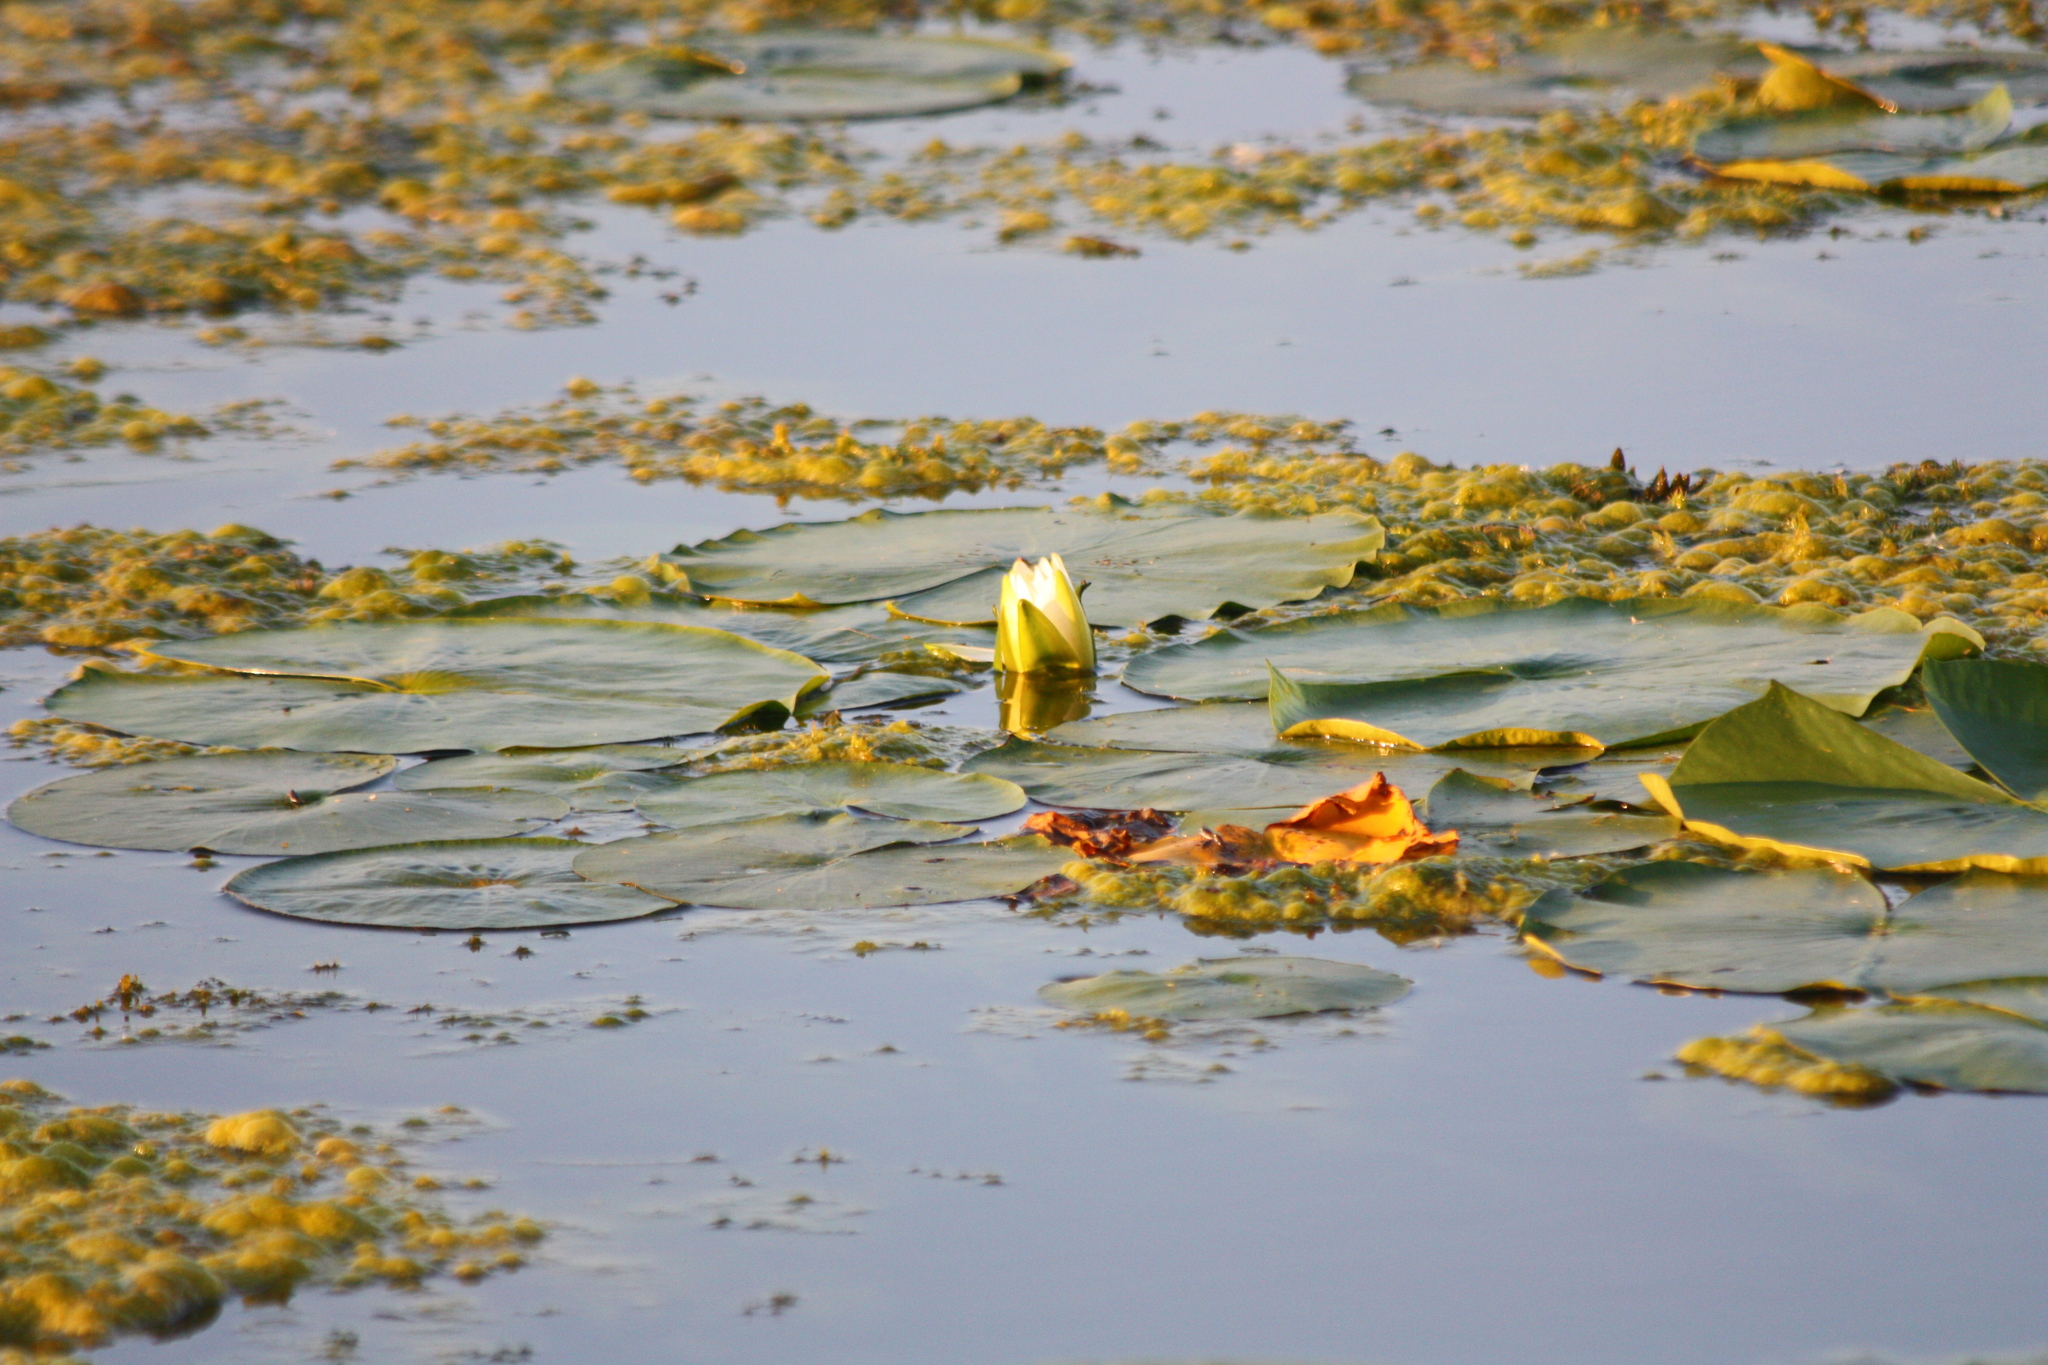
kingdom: Plantae
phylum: Tracheophyta
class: Magnoliopsida
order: Nymphaeales
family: Nymphaeaceae
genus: Nymphaea
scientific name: Nymphaea odorata
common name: Fragrant water-lily
